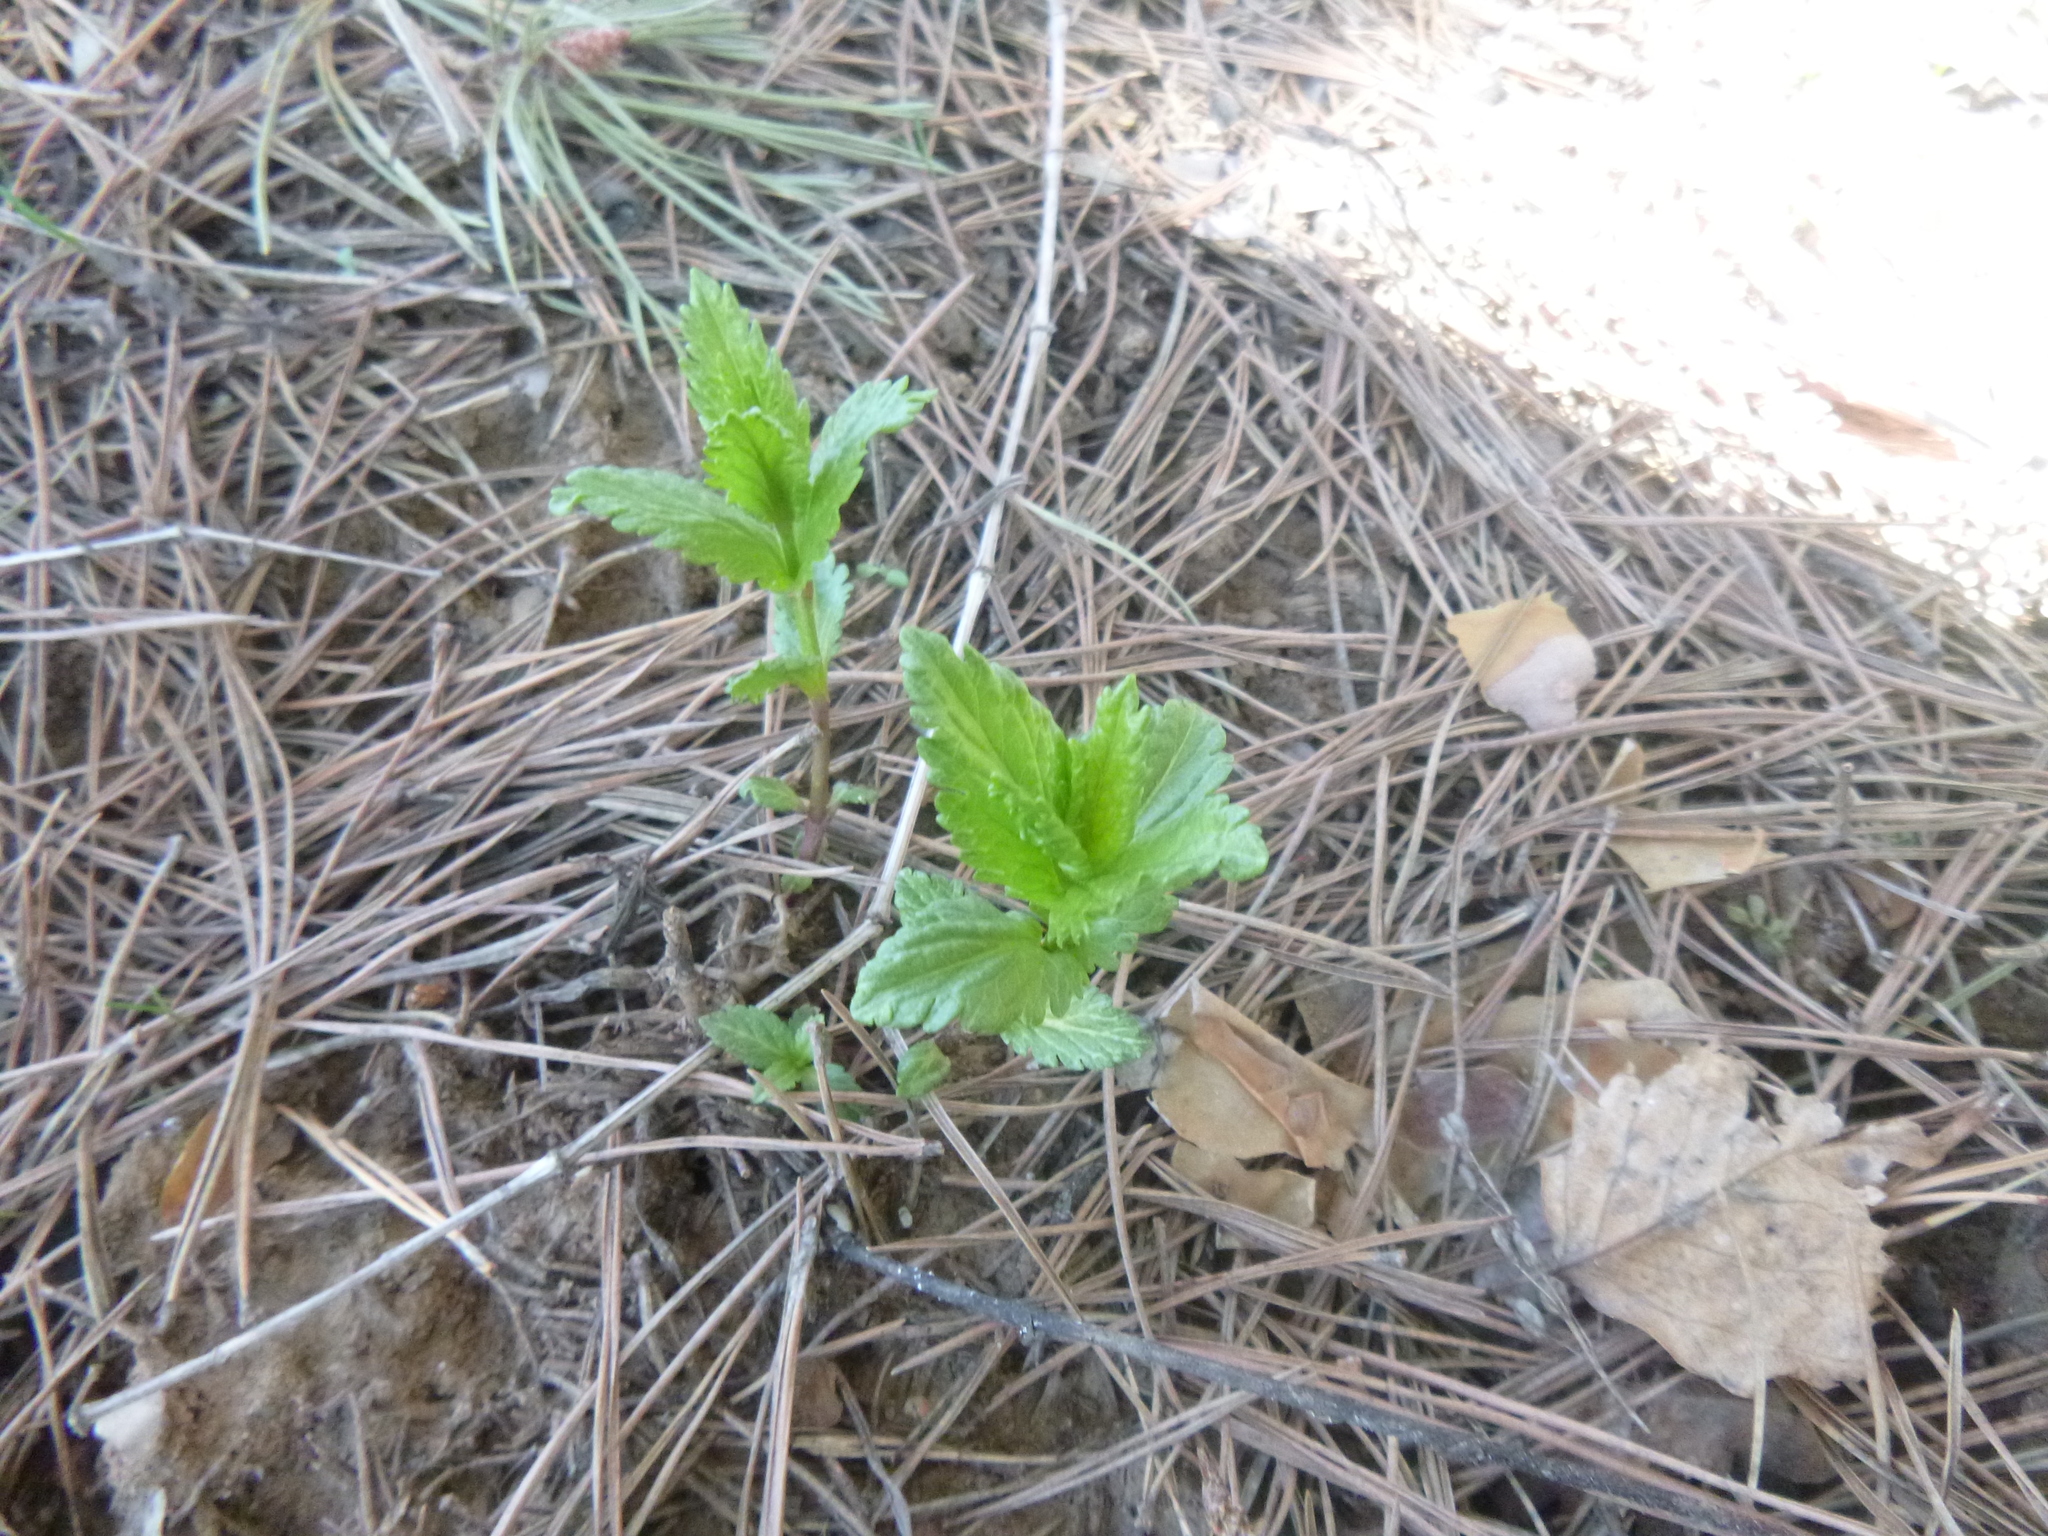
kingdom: Plantae
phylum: Tracheophyta
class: Magnoliopsida
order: Lamiales
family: Plantaginaceae
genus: Veronica
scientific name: Veronica teucrium
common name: Large speedwell
